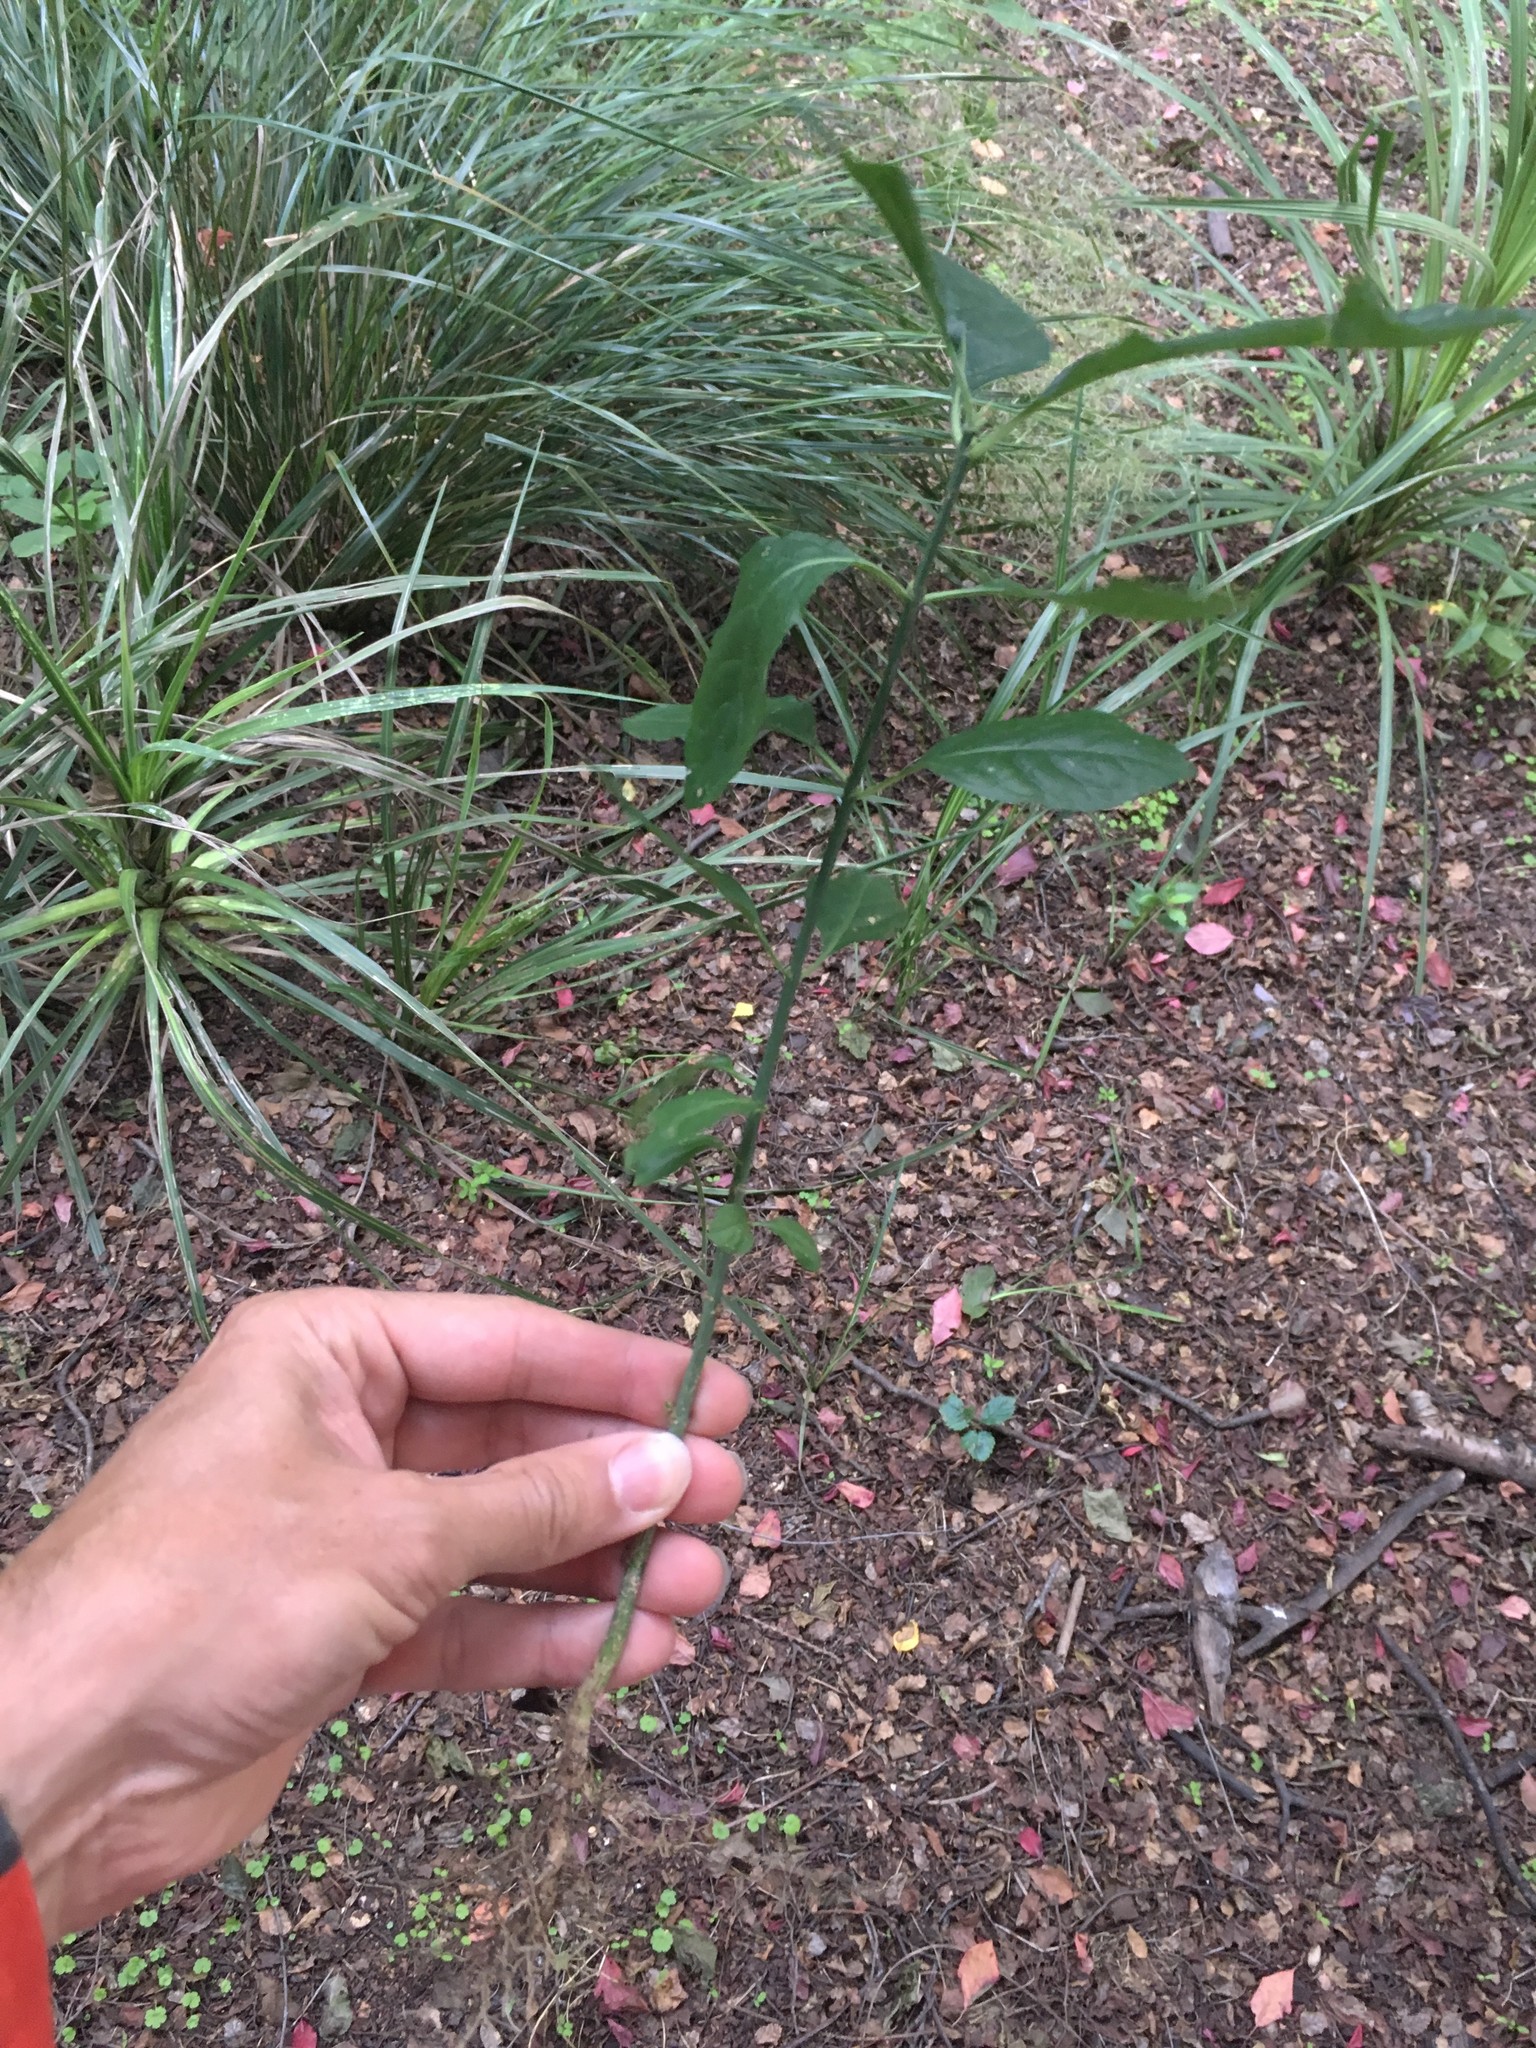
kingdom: Plantae
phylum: Tracheophyta
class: Magnoliopsida
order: Celastrales
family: Celastraceae
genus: Euonymus
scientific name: Euonymus europaeus
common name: Spindle
